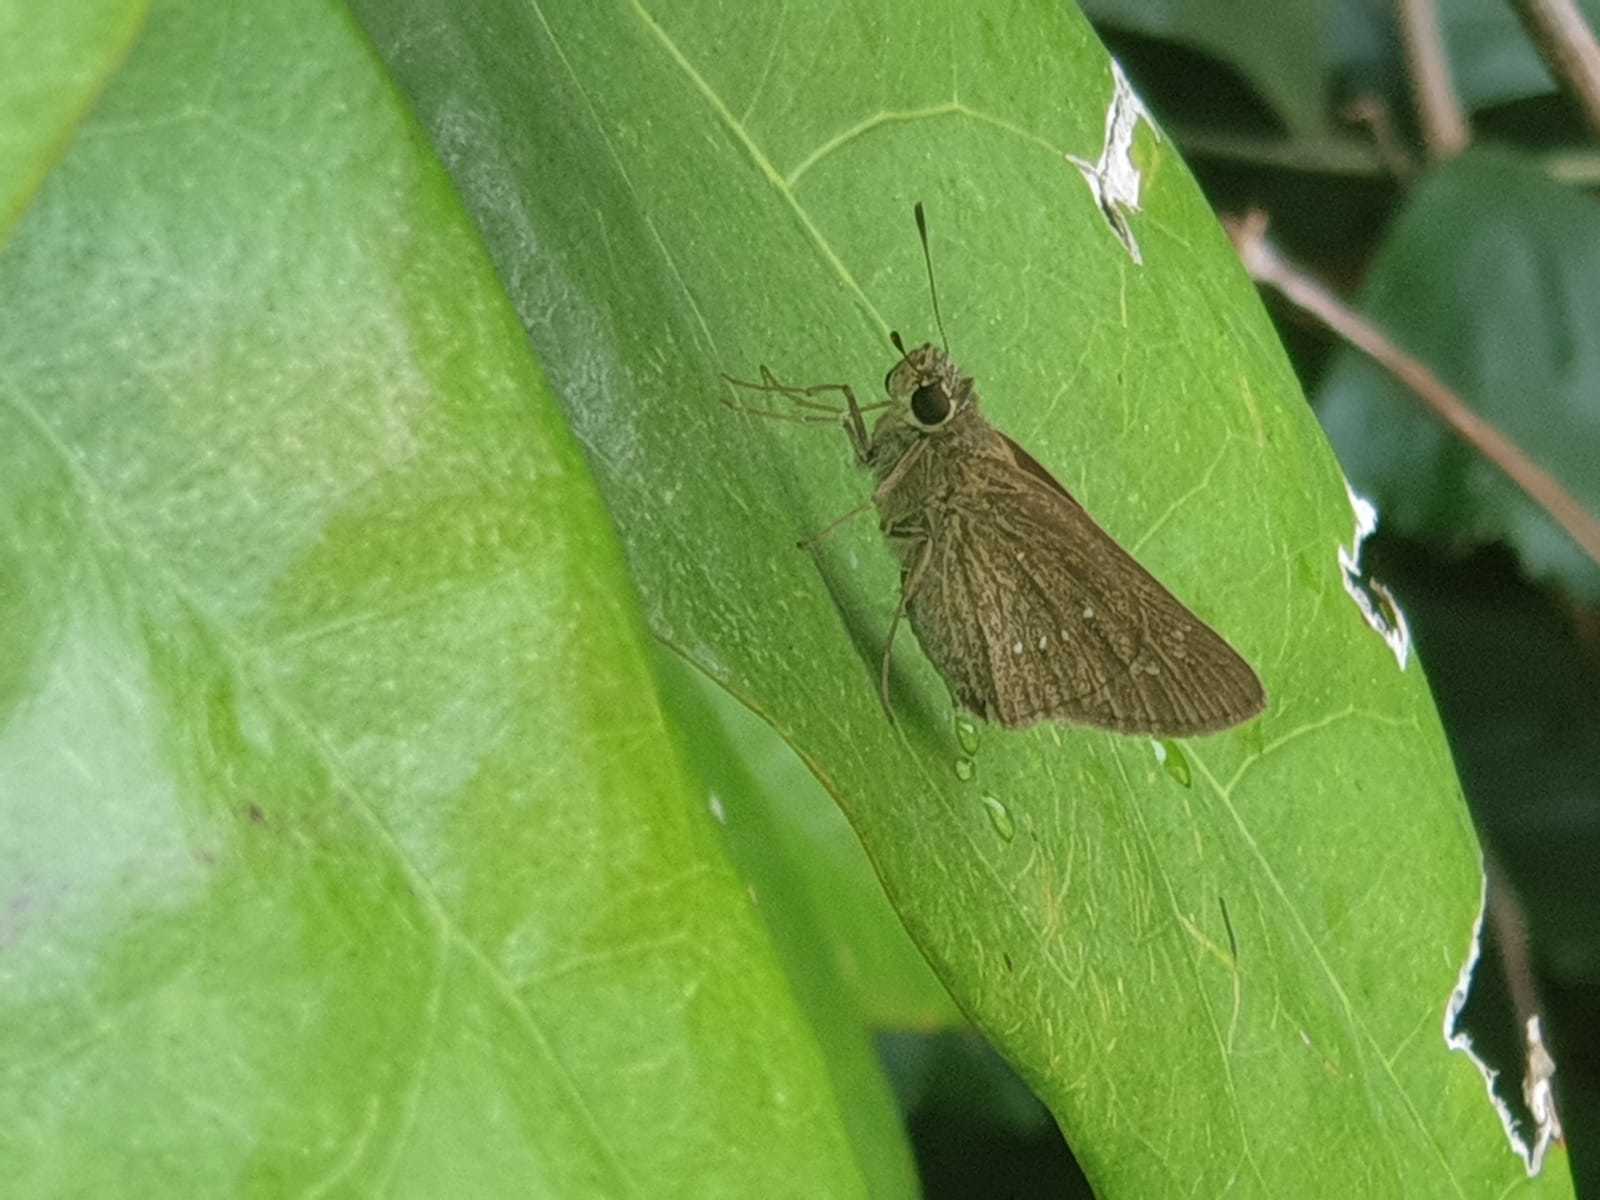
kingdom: Animalia
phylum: Arthropoda
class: Insecta
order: Lepidoptera
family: Hesperiidae
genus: Pelopidas
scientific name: Pelopidas mathias
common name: Black-branded swift
